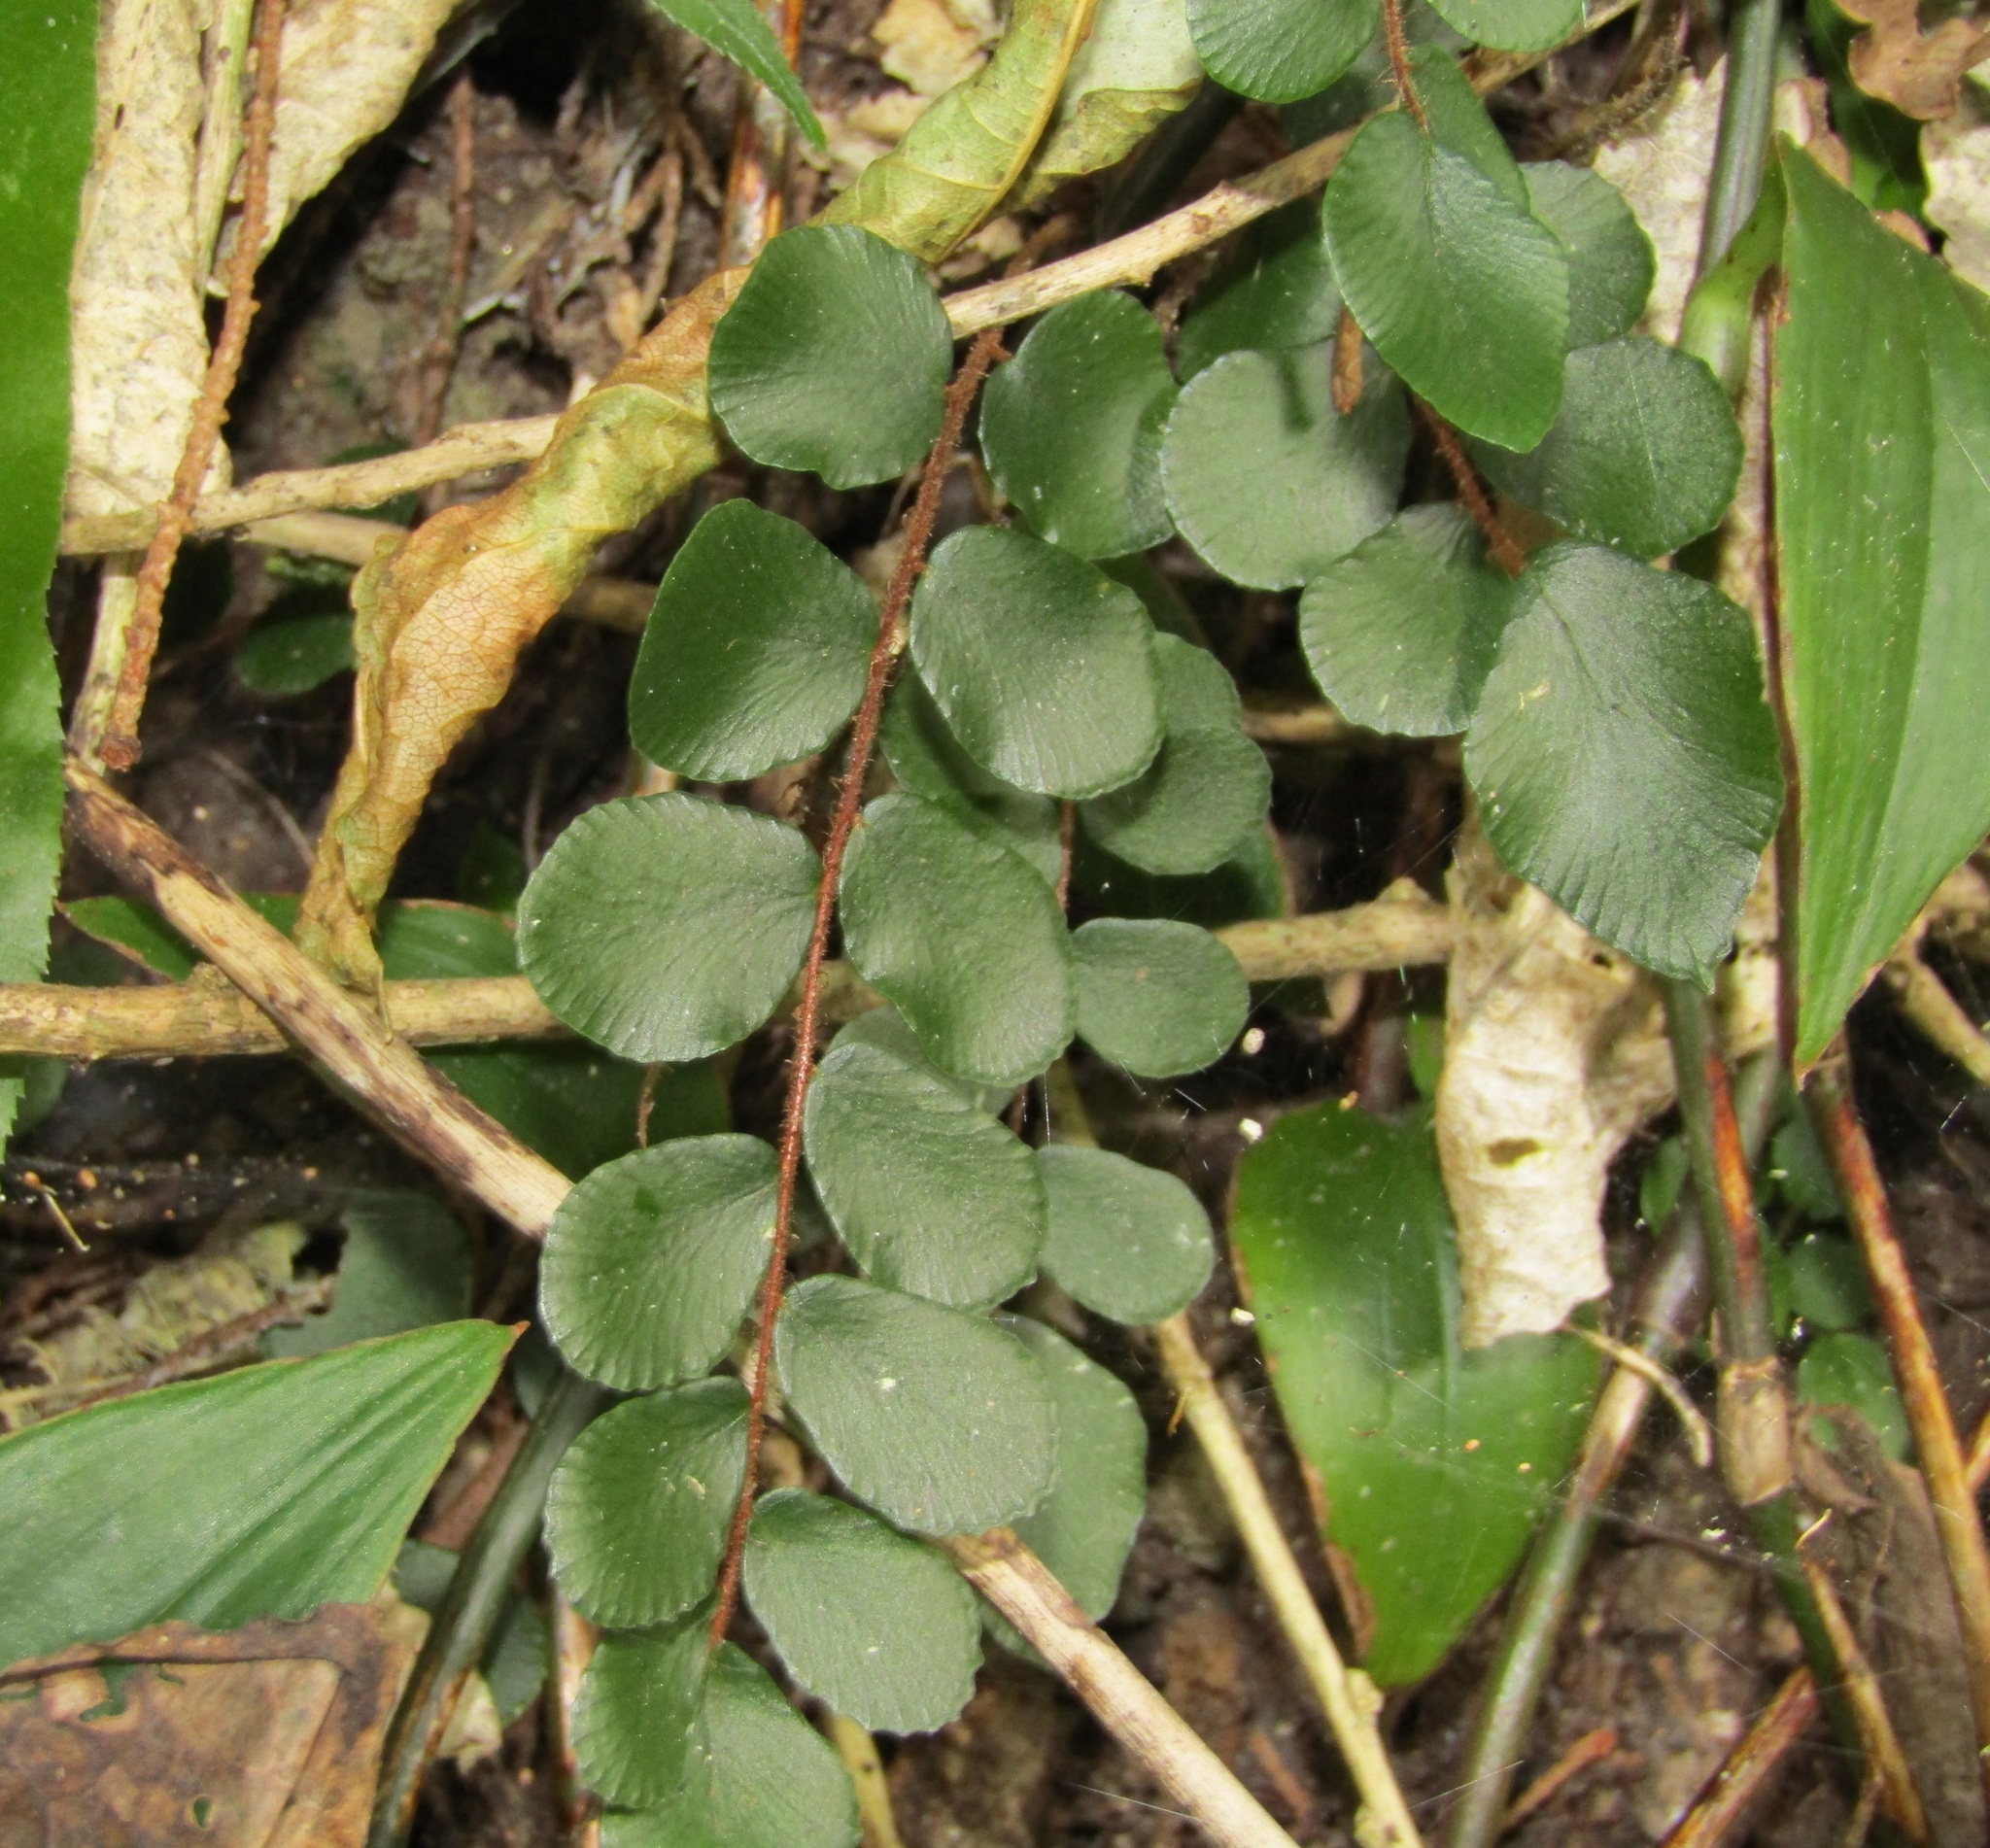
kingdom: Plantae
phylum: Tracheophyta
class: Polypodiopsida
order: Polypodiales
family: Pteridaceae
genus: Pellaea
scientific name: Pellaea rotundifolia
